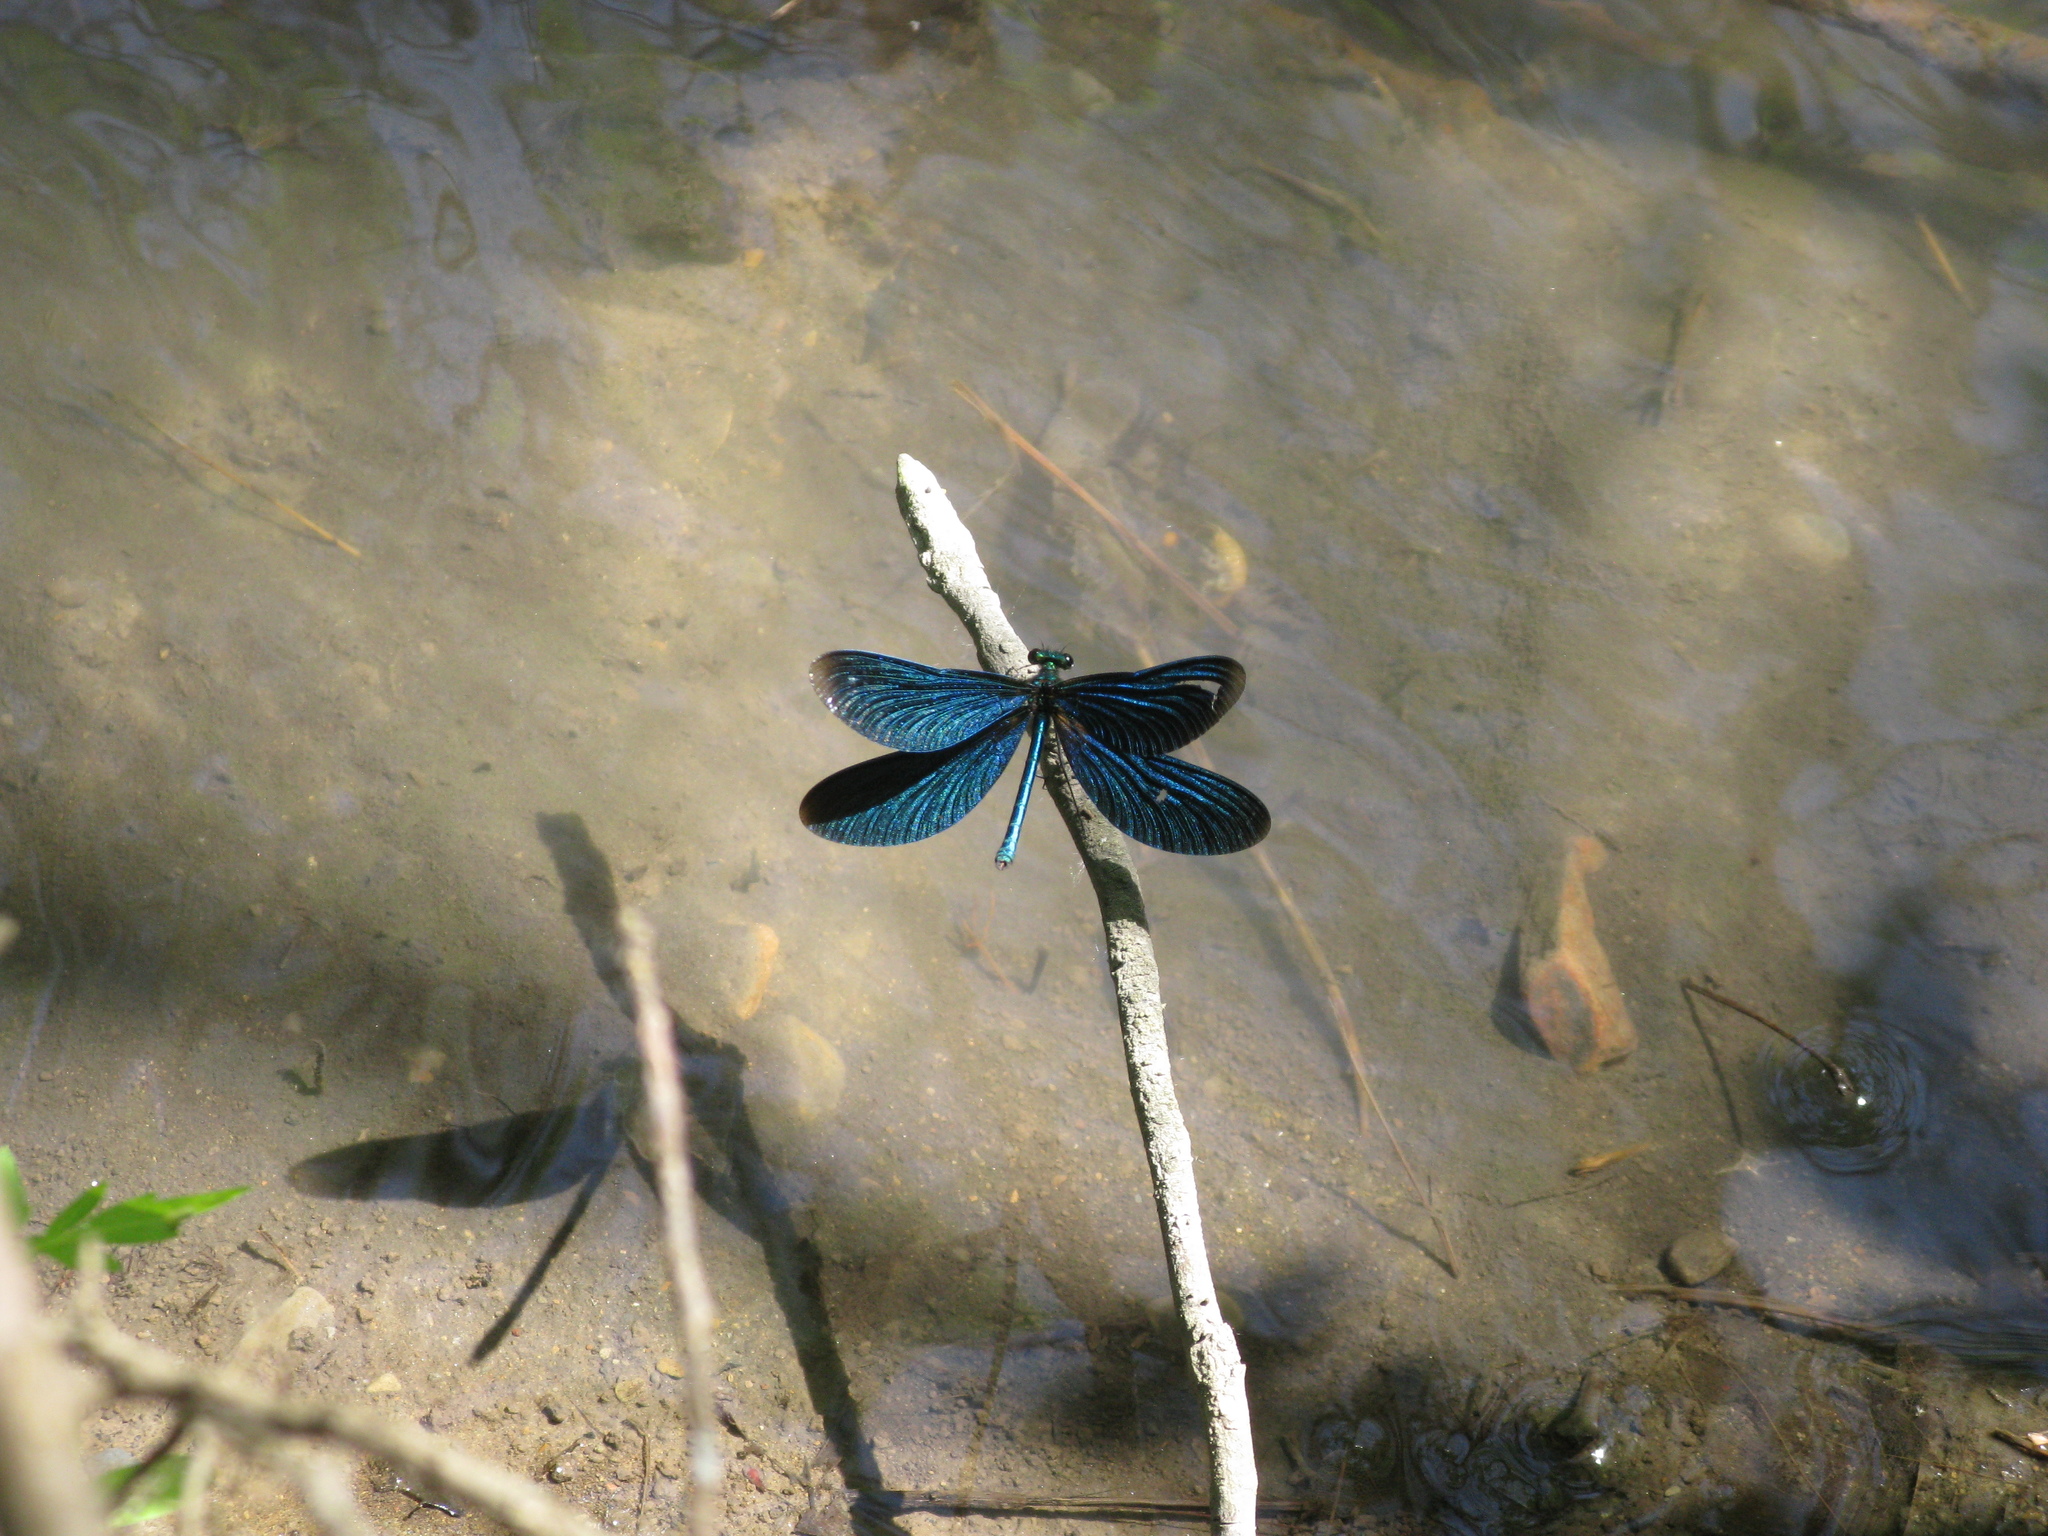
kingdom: Animalia
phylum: Arthropoda
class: Insecta
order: Odonata
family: Calopterygidae
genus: Calopteryx
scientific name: Calopteryx virgo
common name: Beautiful demoiselle
